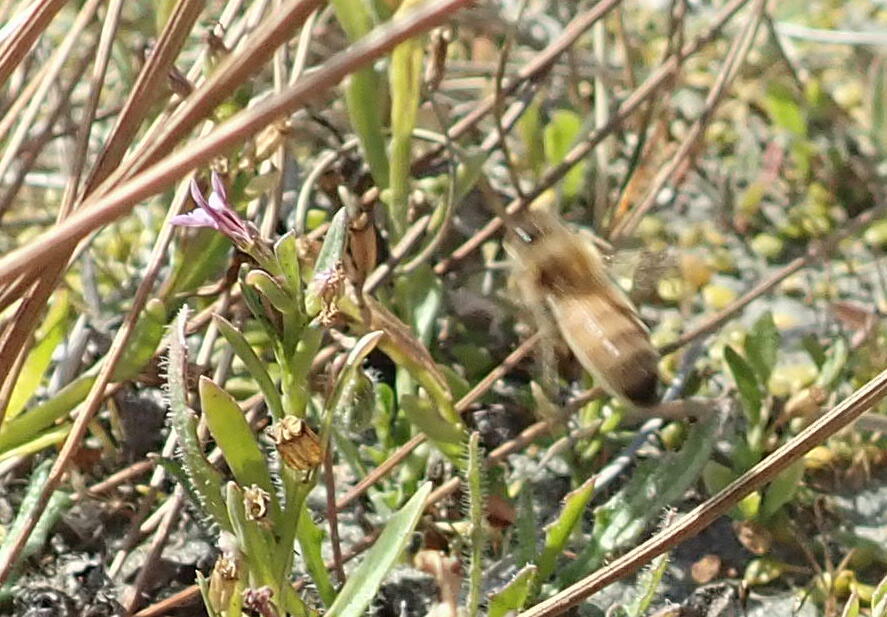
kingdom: Animalia
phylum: Arthropoda
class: Insecta
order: Hymenoptera
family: Apidae
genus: Apis
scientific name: Apis mellifera
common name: Honey bee
